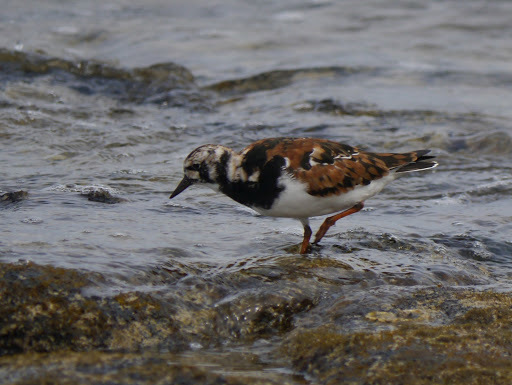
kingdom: Animalia
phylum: Chordata
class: Aves
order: Charadriiformes
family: Scolopacidae
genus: Arenaria
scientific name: Arenaria interpres
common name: Ruddy turnstone
